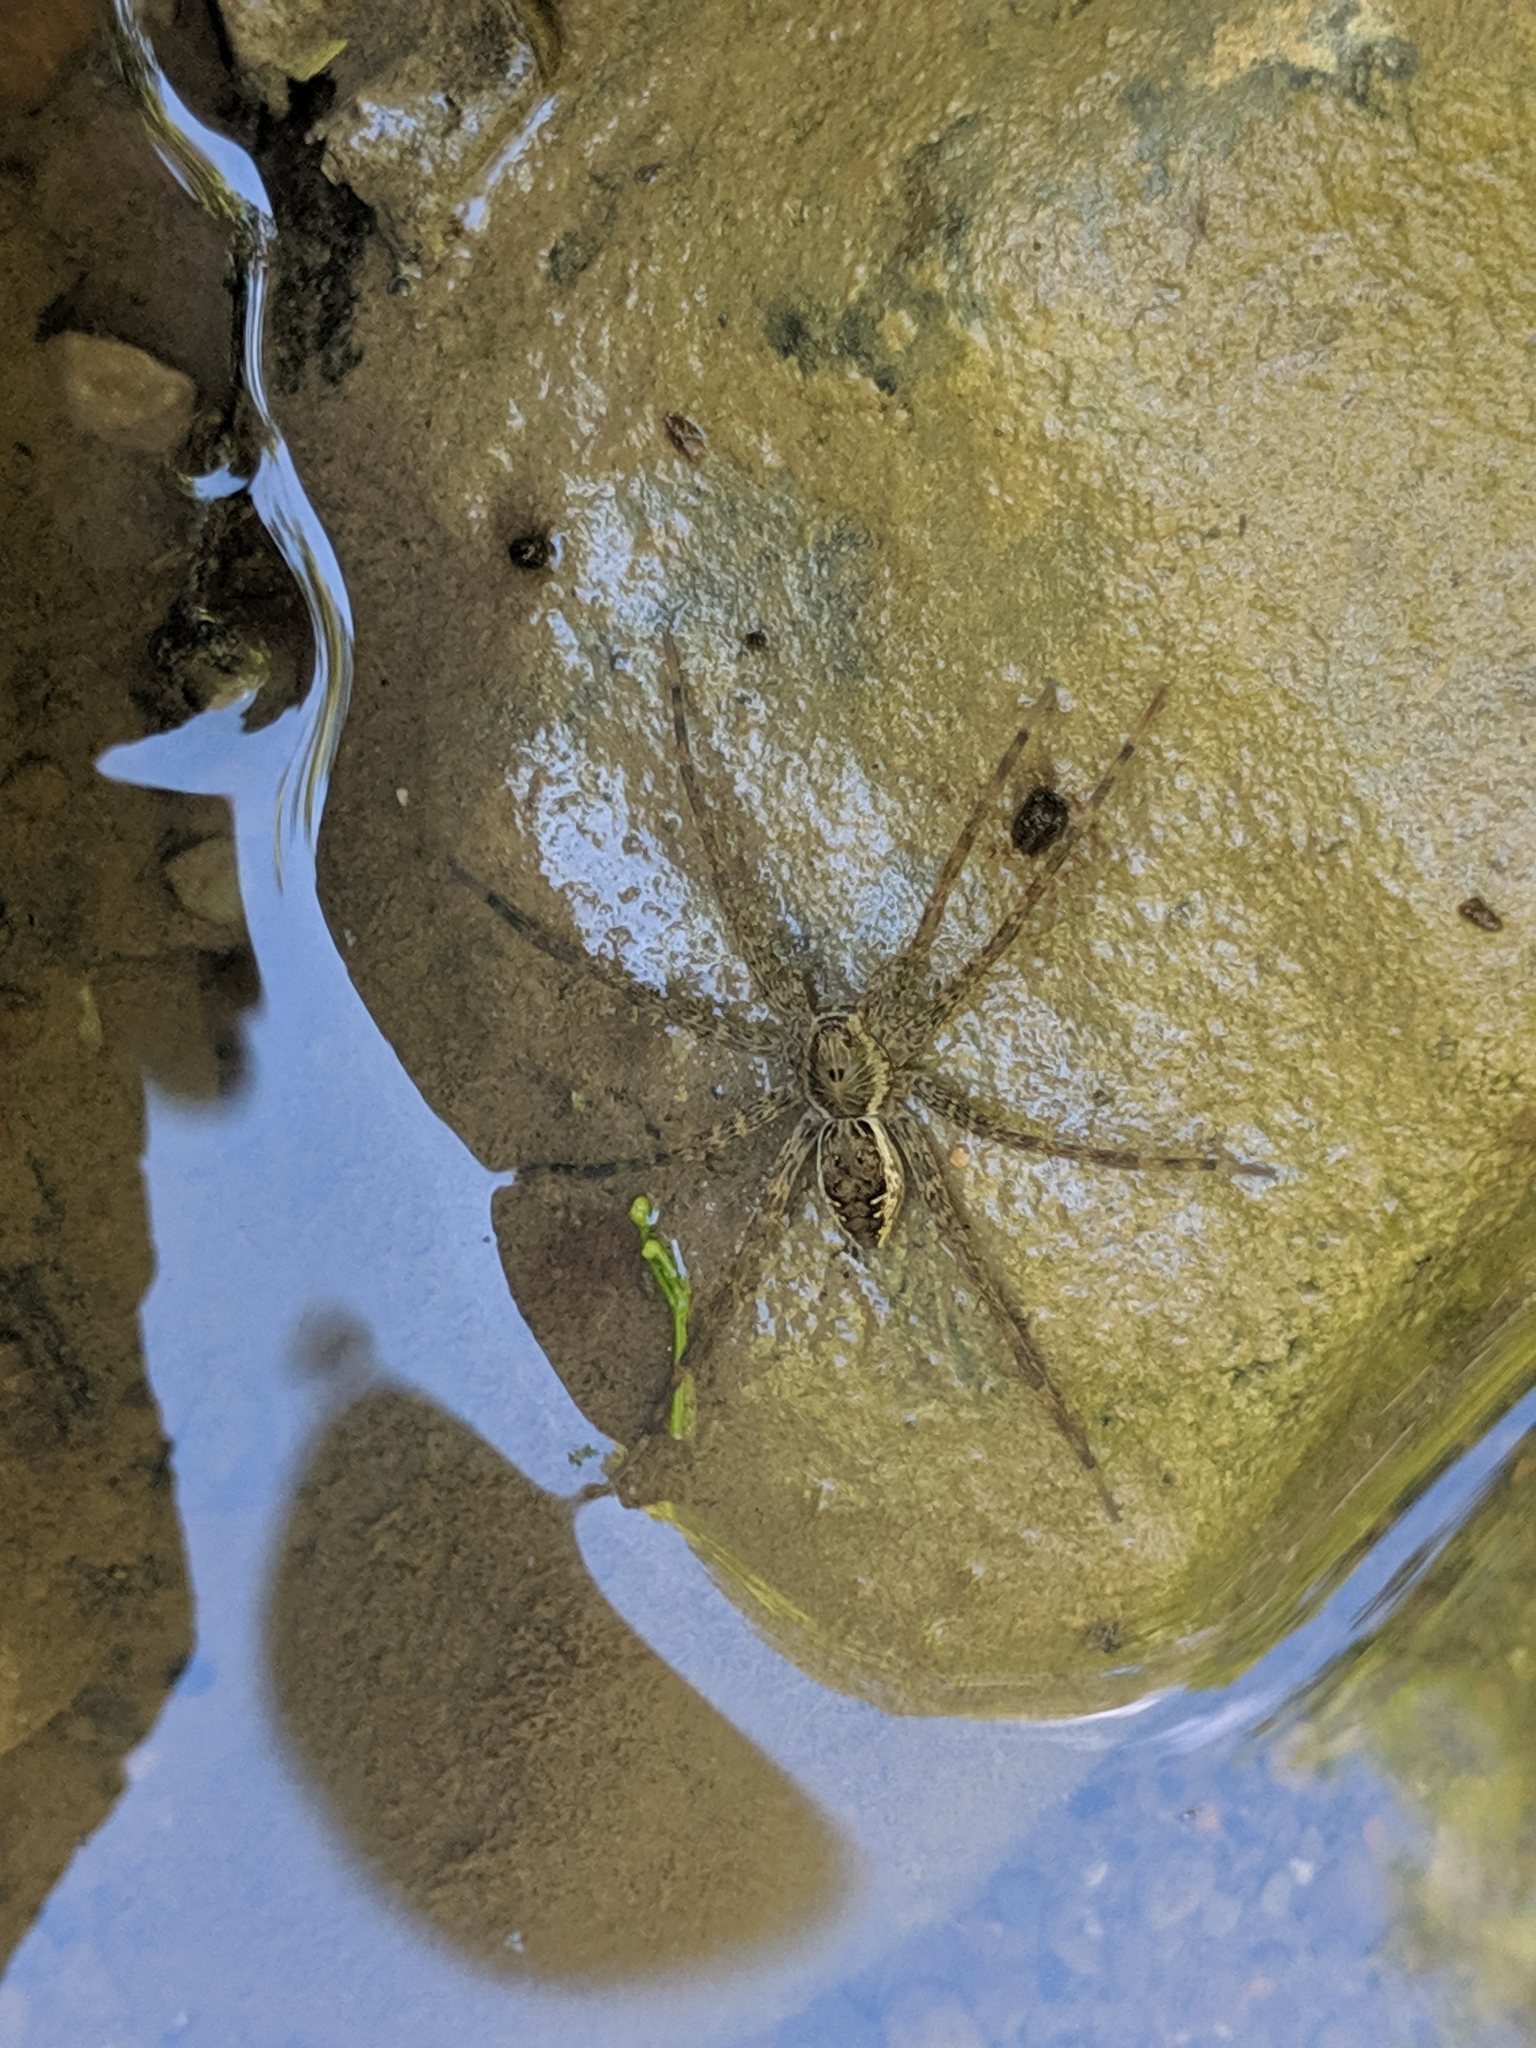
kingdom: Animalia
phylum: Arthropoda
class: Arachnida
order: Araneae
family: Pisauridae
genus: Dolomedes
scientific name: Dolomedes vittatus
